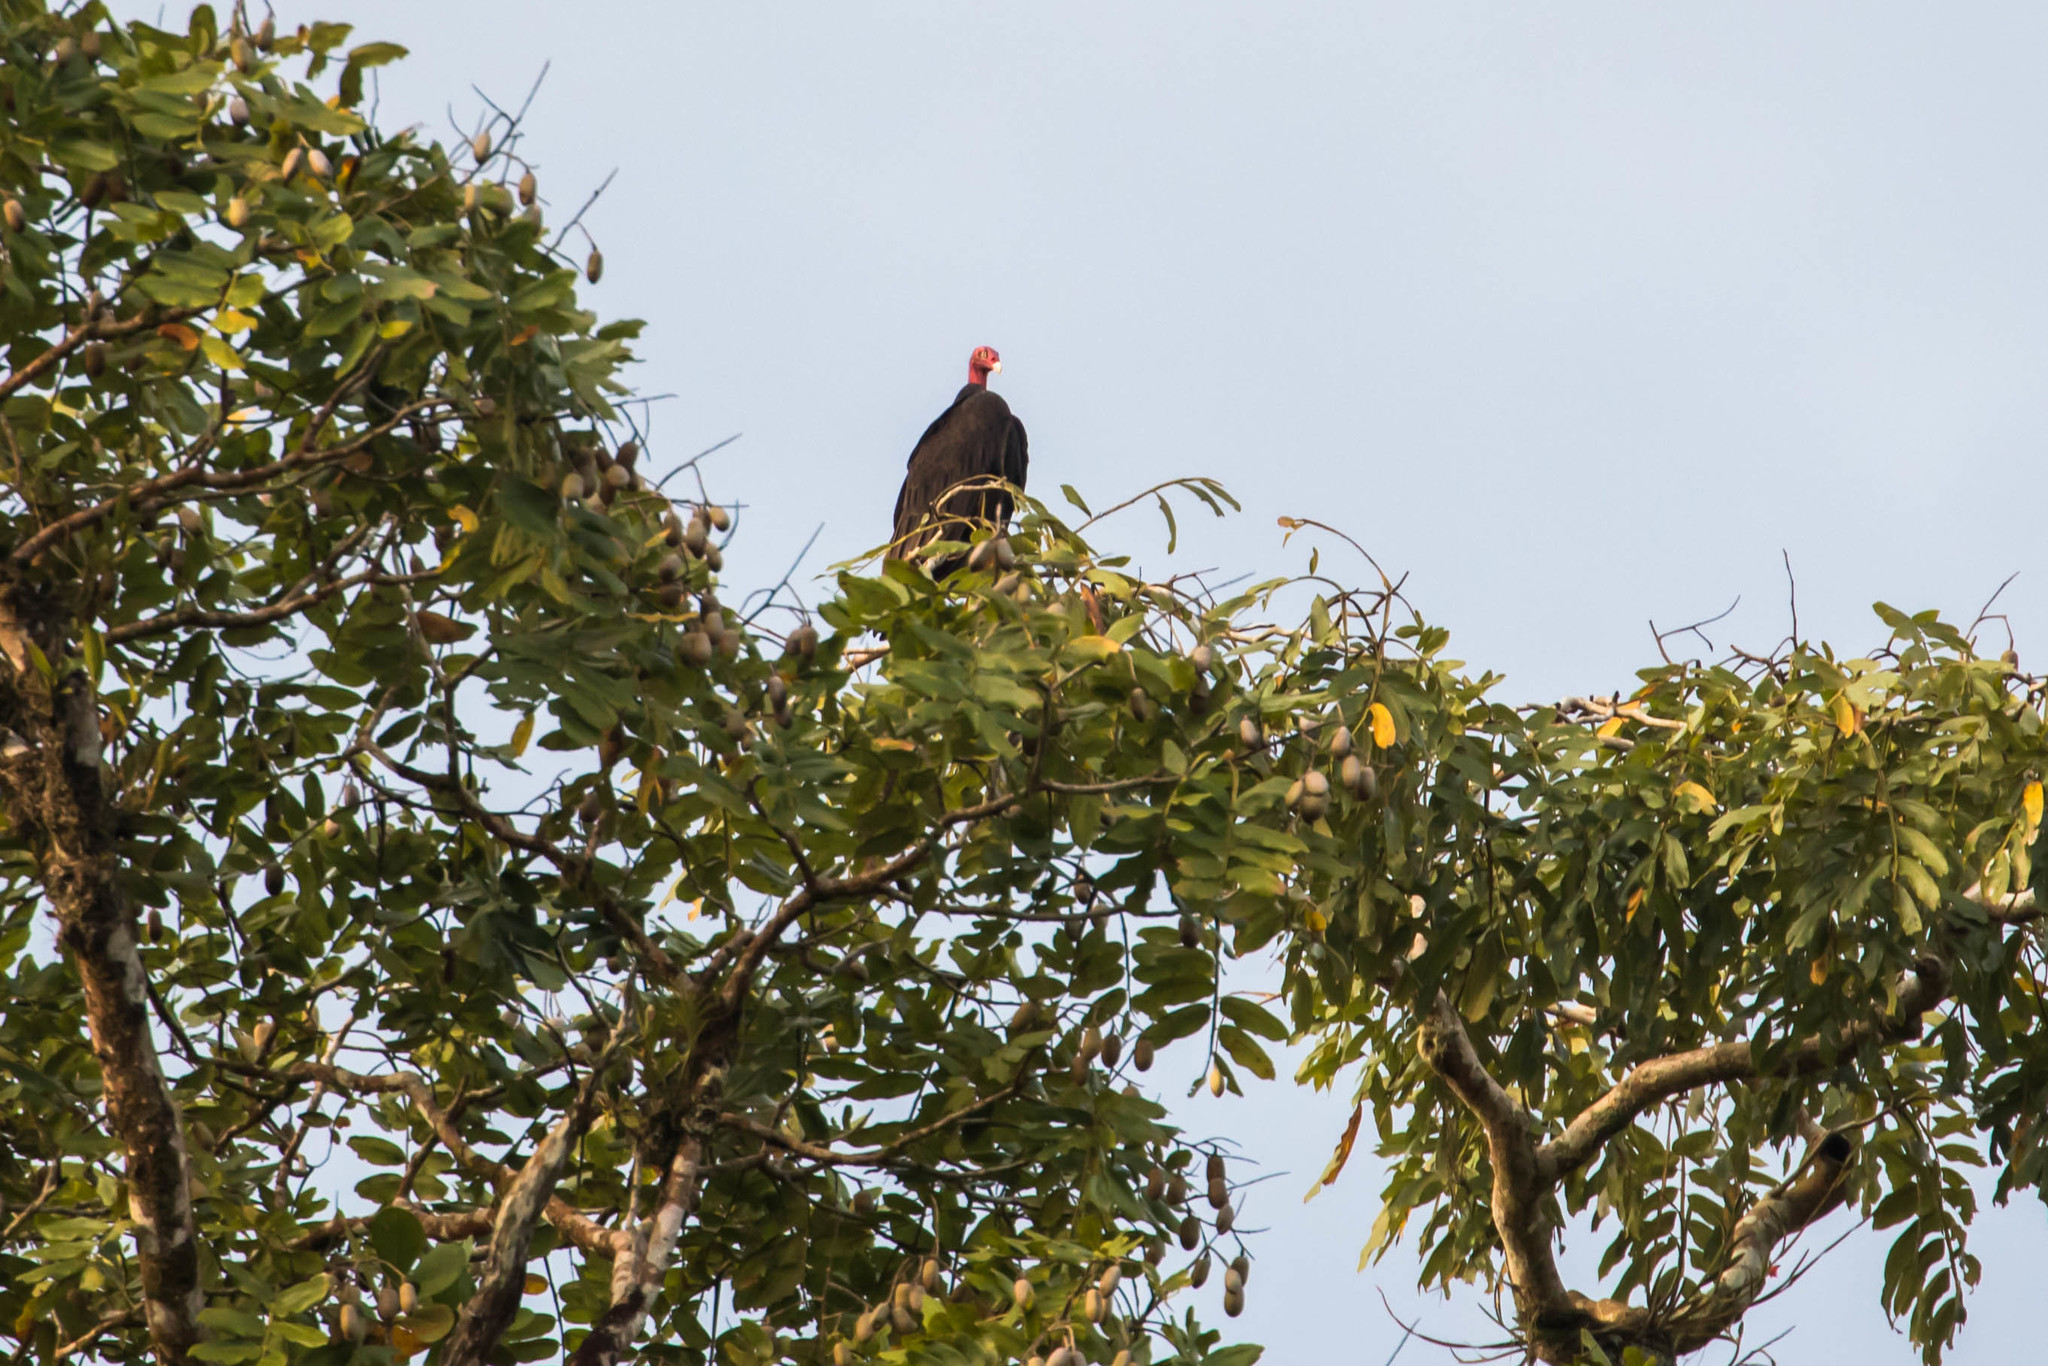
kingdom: Animalia
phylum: Chordata
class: Aves
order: Accipitriformes
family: Cathartidae
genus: Cathartes
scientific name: Cathartes aura
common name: Turkey vulture
